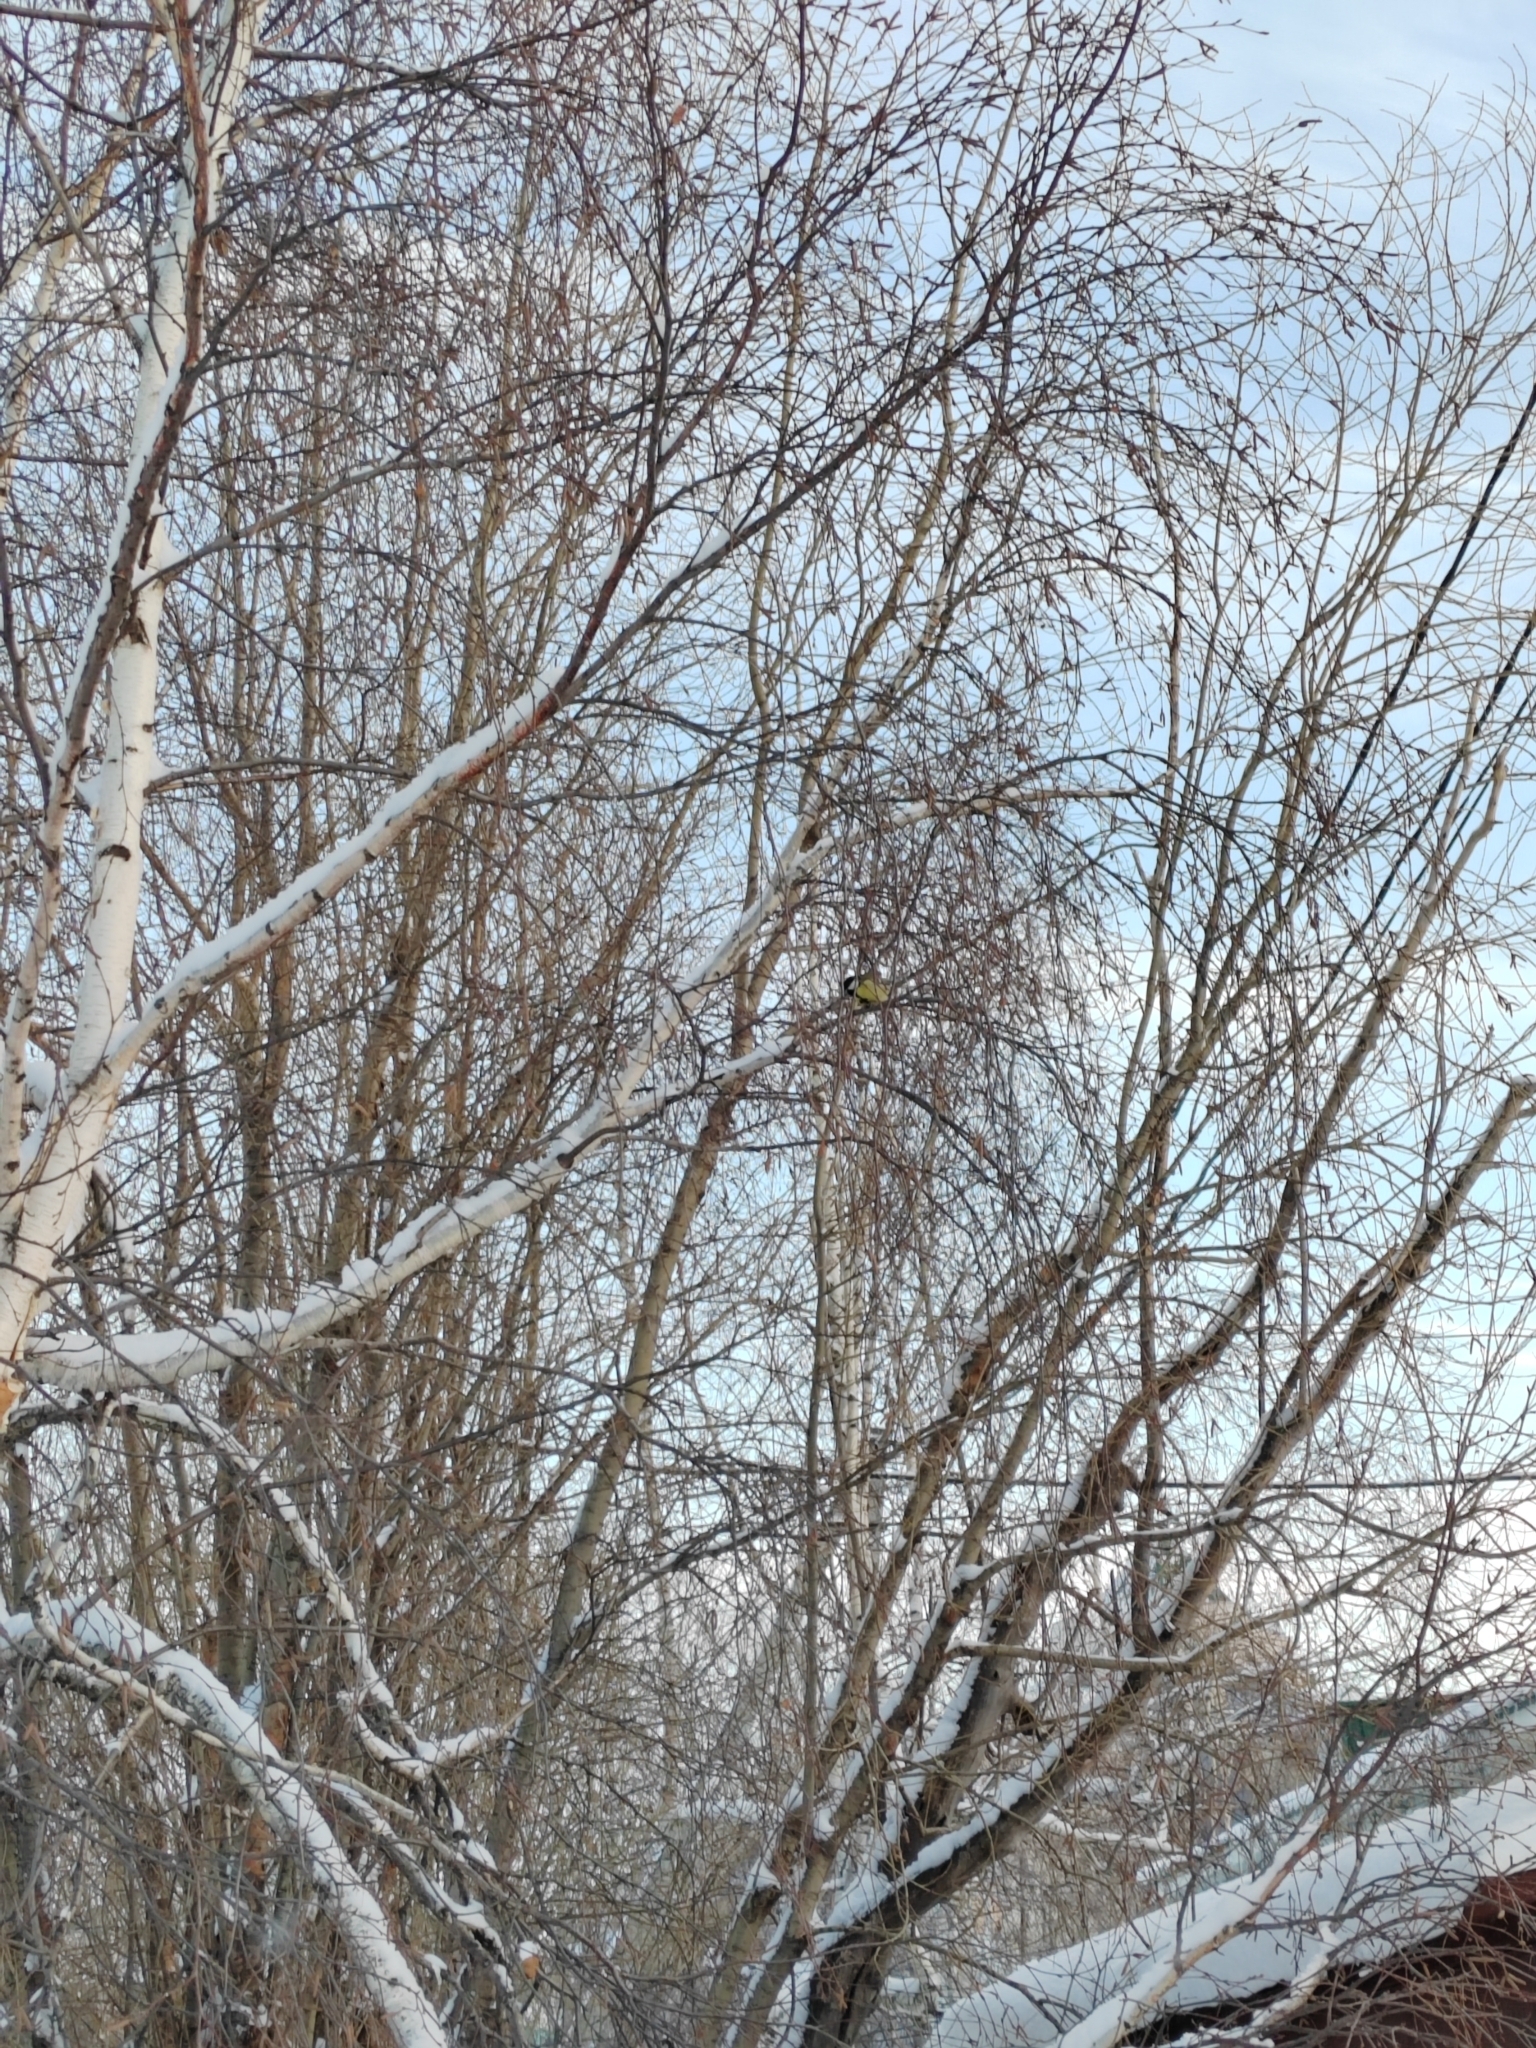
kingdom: Animalia
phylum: Chordata
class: Aves
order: Passeriformes
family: Paridae
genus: Parus
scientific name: Parus major
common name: Great tit
